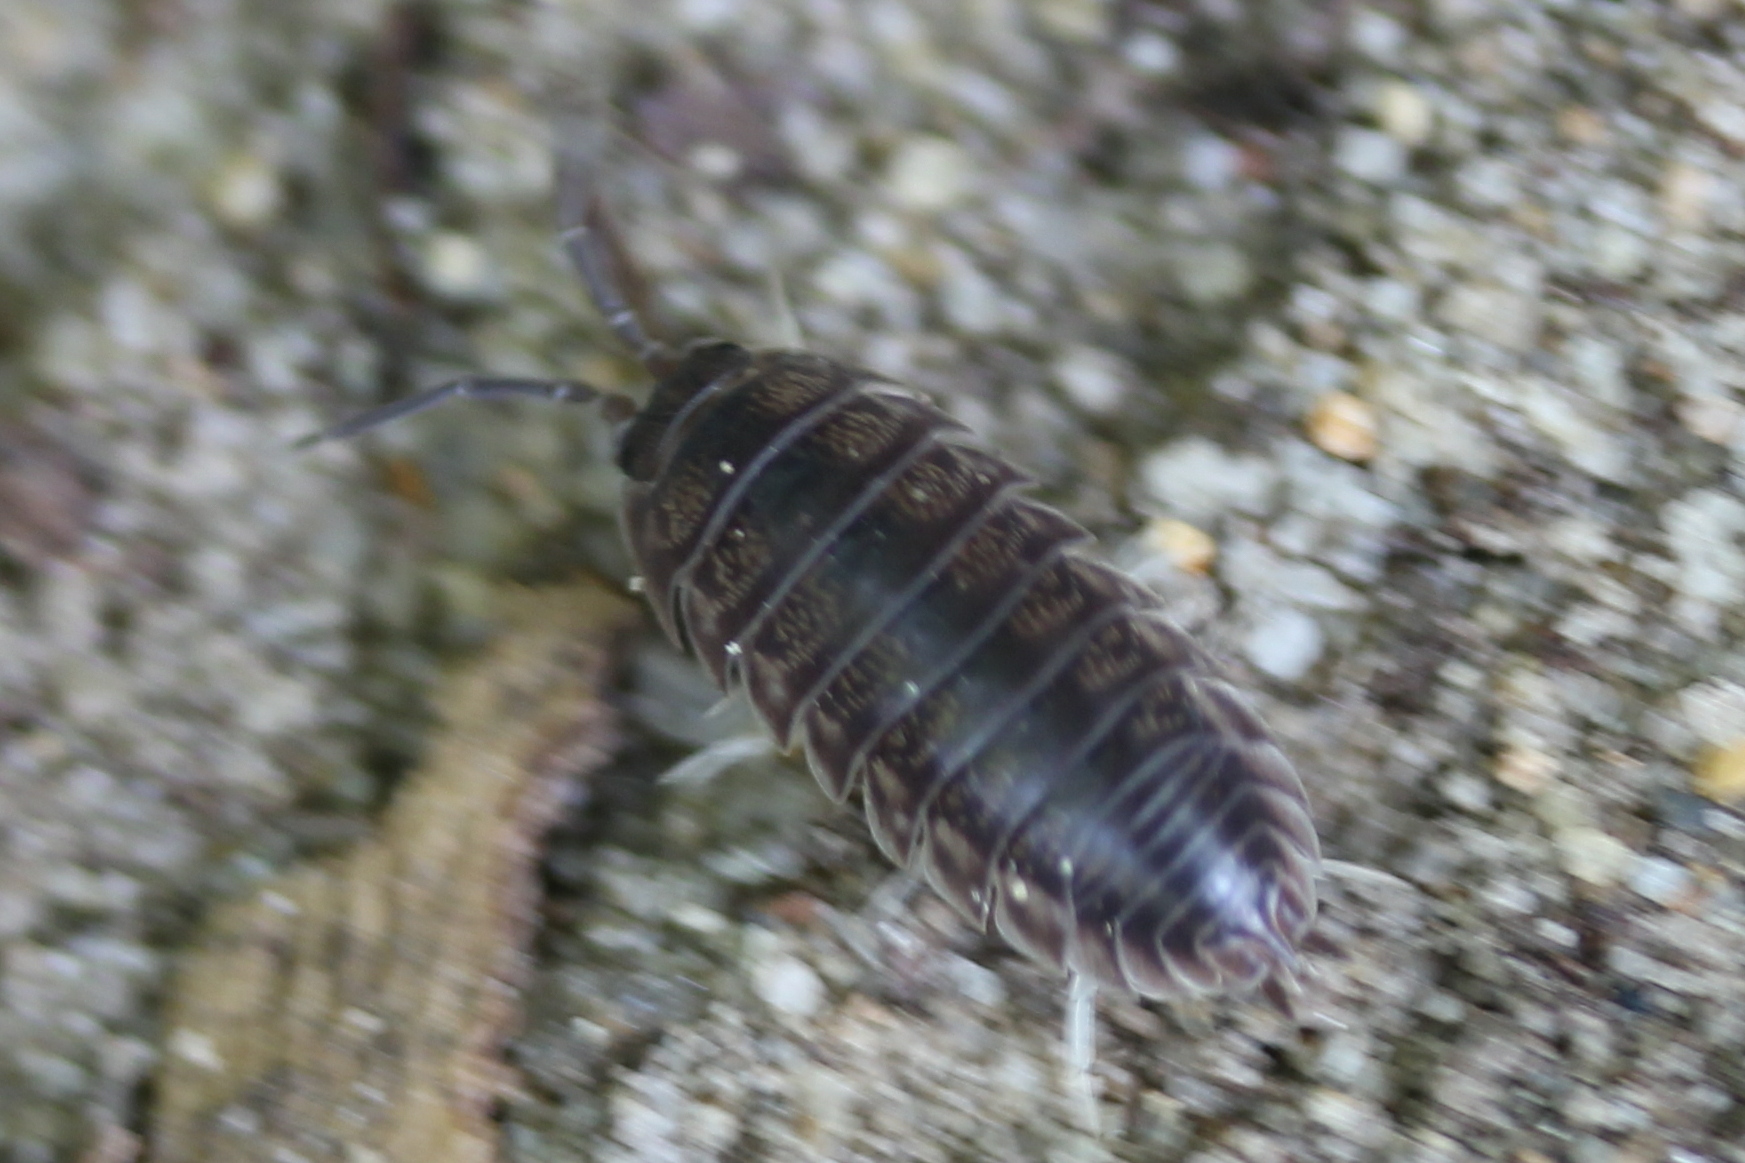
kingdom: Animalia
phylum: Arthropoda
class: Malacostraca
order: Isopoda
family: Cylisticidae
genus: Cylisticus
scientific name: Cylisticus convexus
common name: Curly woodlouse
